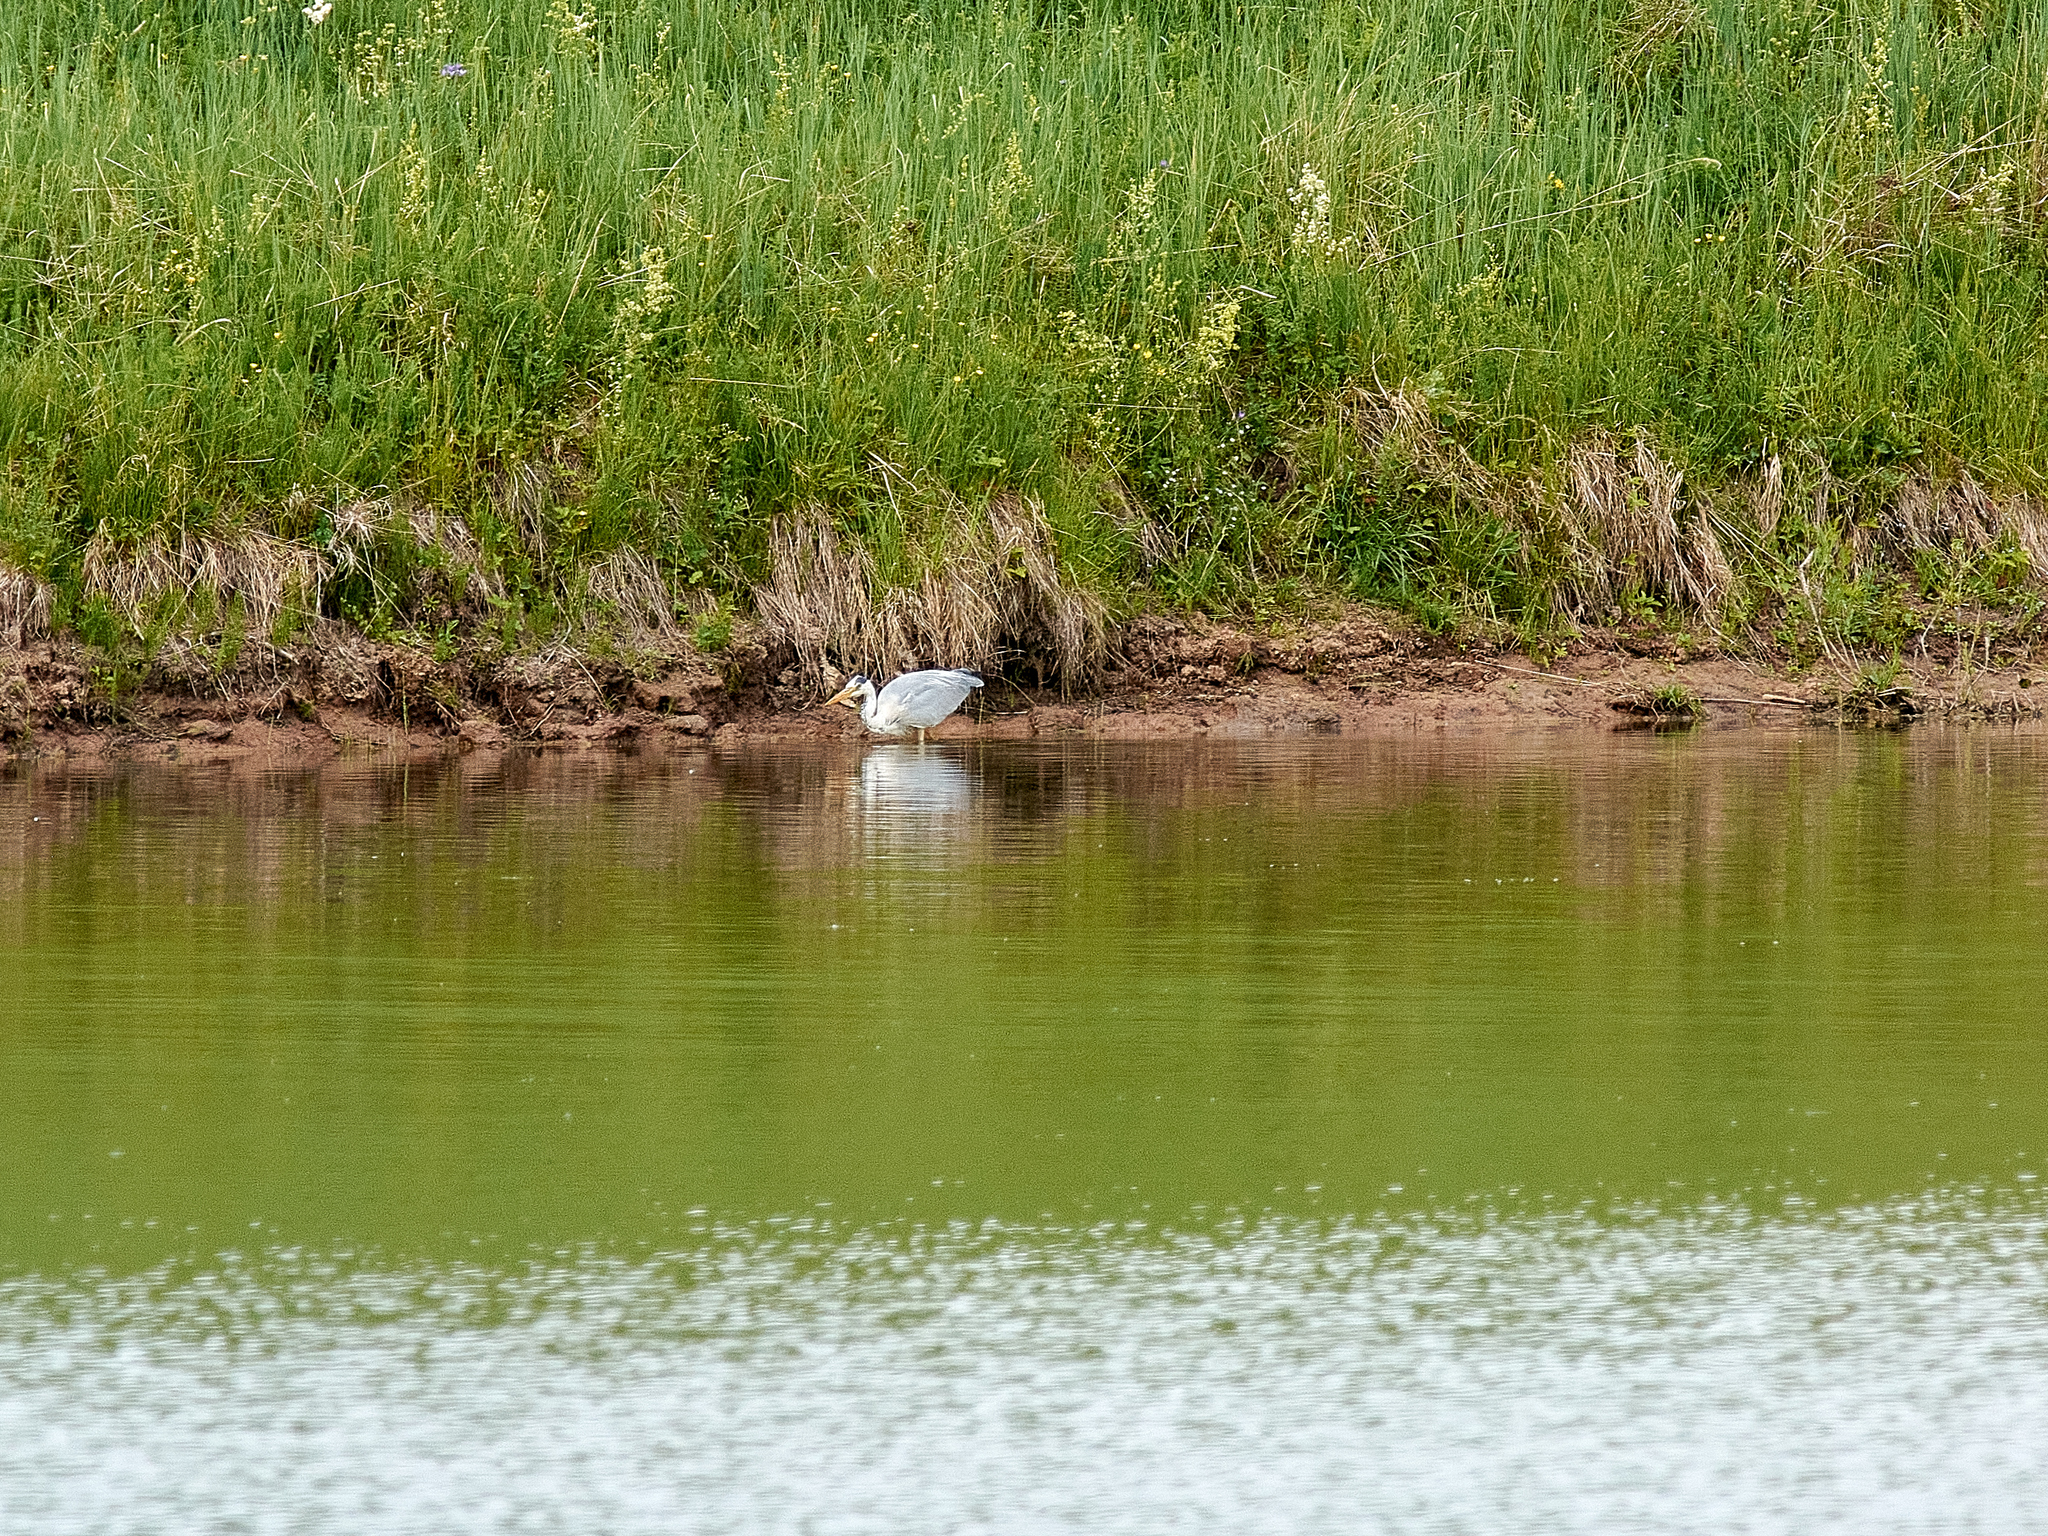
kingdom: Animalia
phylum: Chordata
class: Aves
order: Pelecaniformes
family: Ardeidae
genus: Ardea
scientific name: Ardea cinerea
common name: Grey heron
